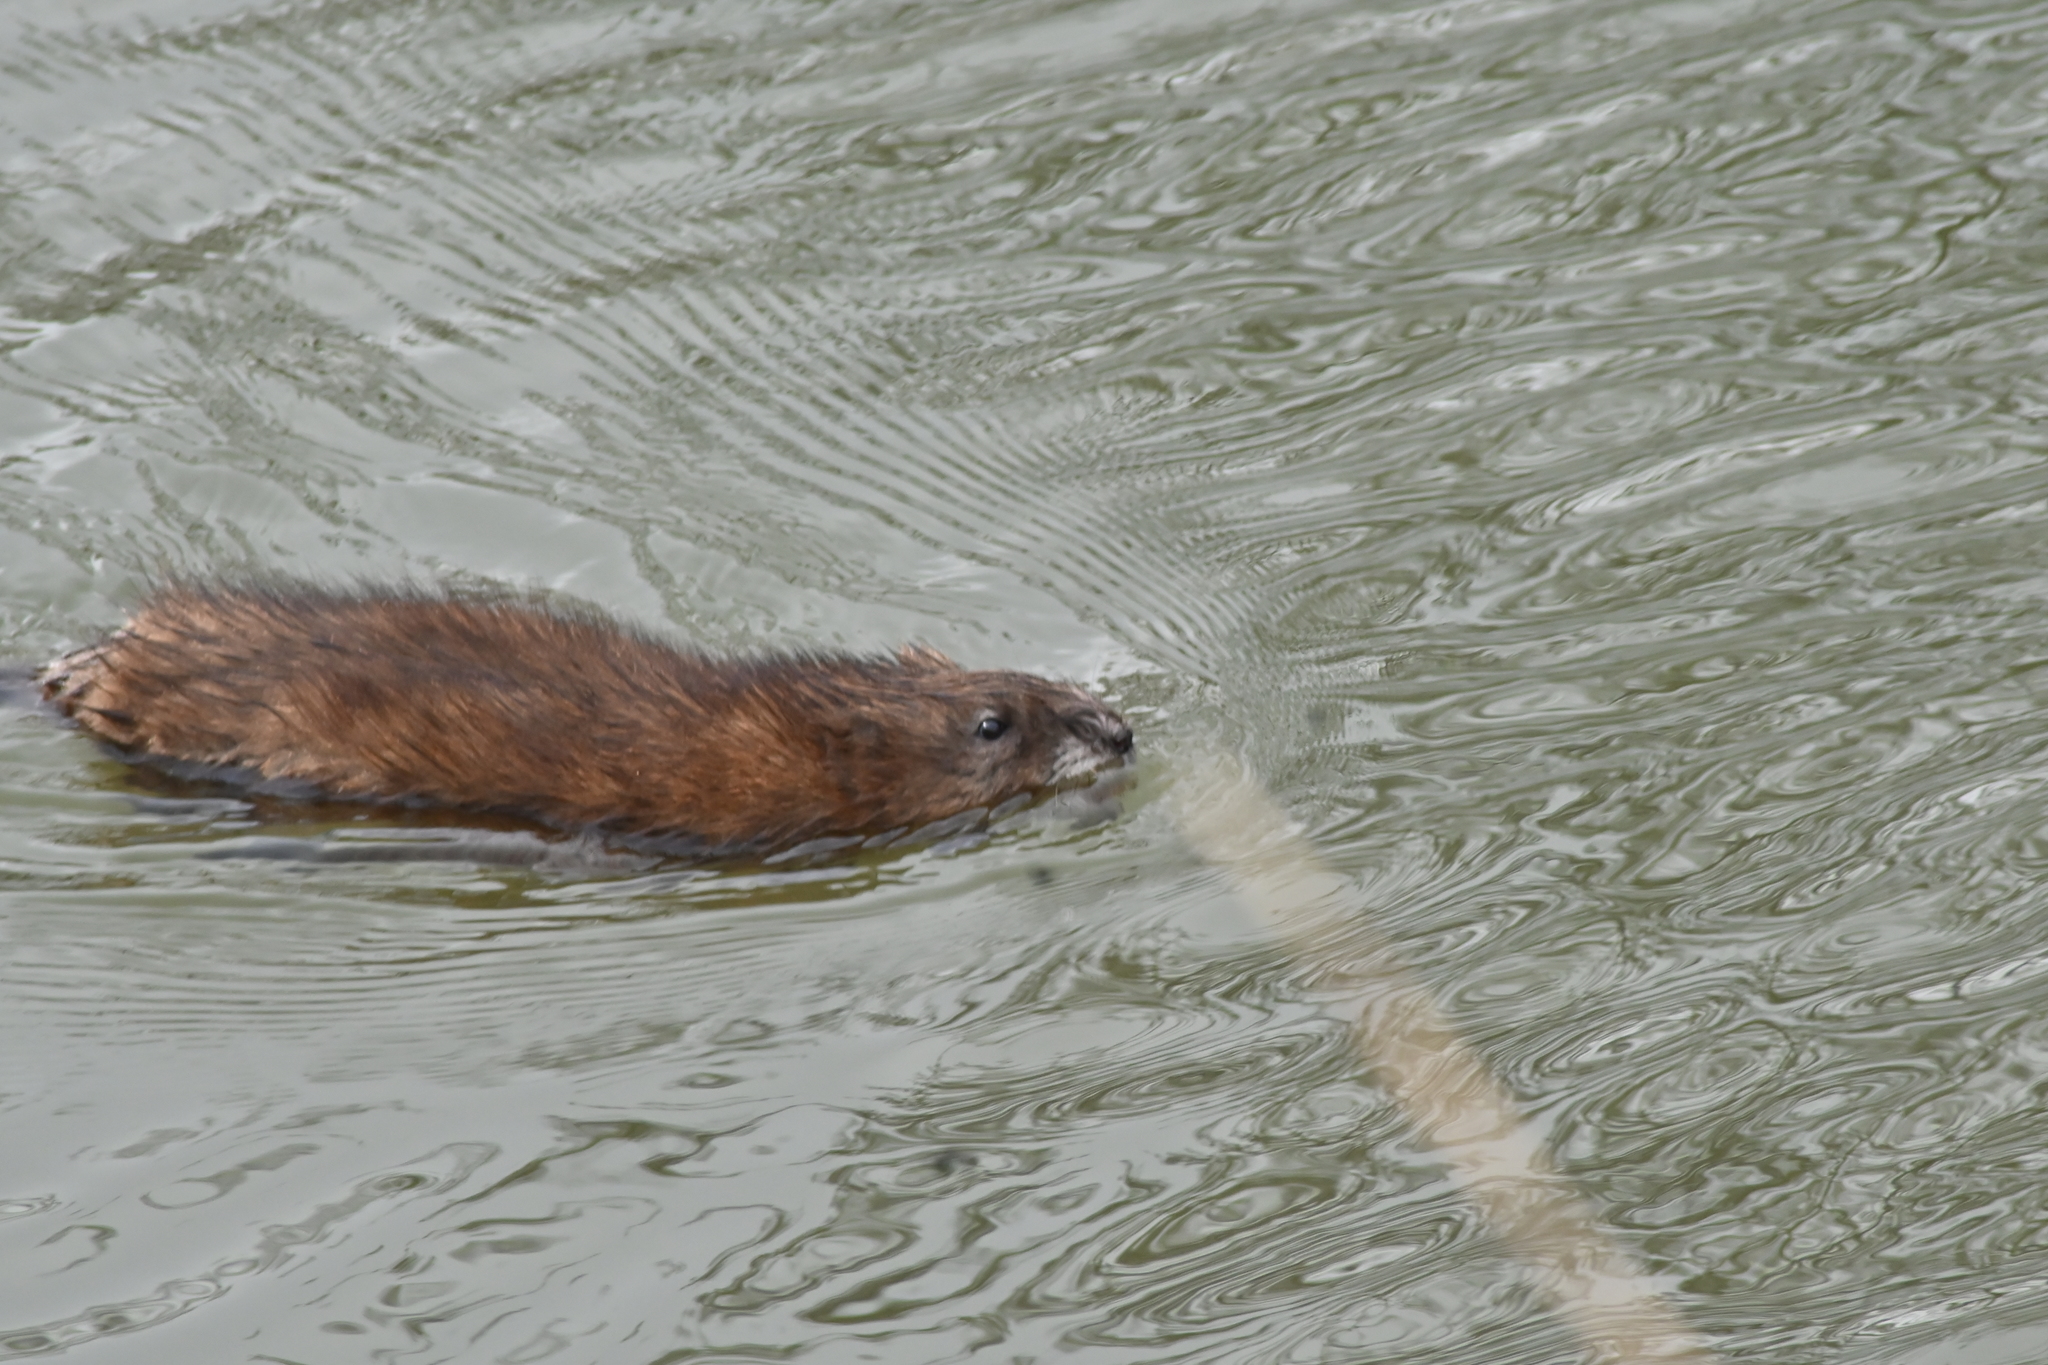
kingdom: Animalia
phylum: Chordata
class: Mammalia
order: Rodentia
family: Cricetidae
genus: Ondatra
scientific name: Ondatra zibethicus
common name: Muskrat
